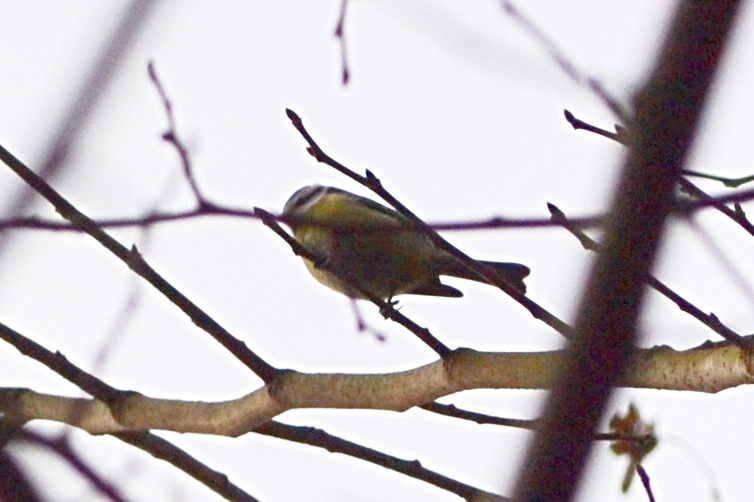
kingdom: Animalia
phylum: Chordata
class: Aves
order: Passeriformes
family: Paridae
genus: Cyanistes
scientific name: Cyanistes caeruleus
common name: Eurasian blue tit
